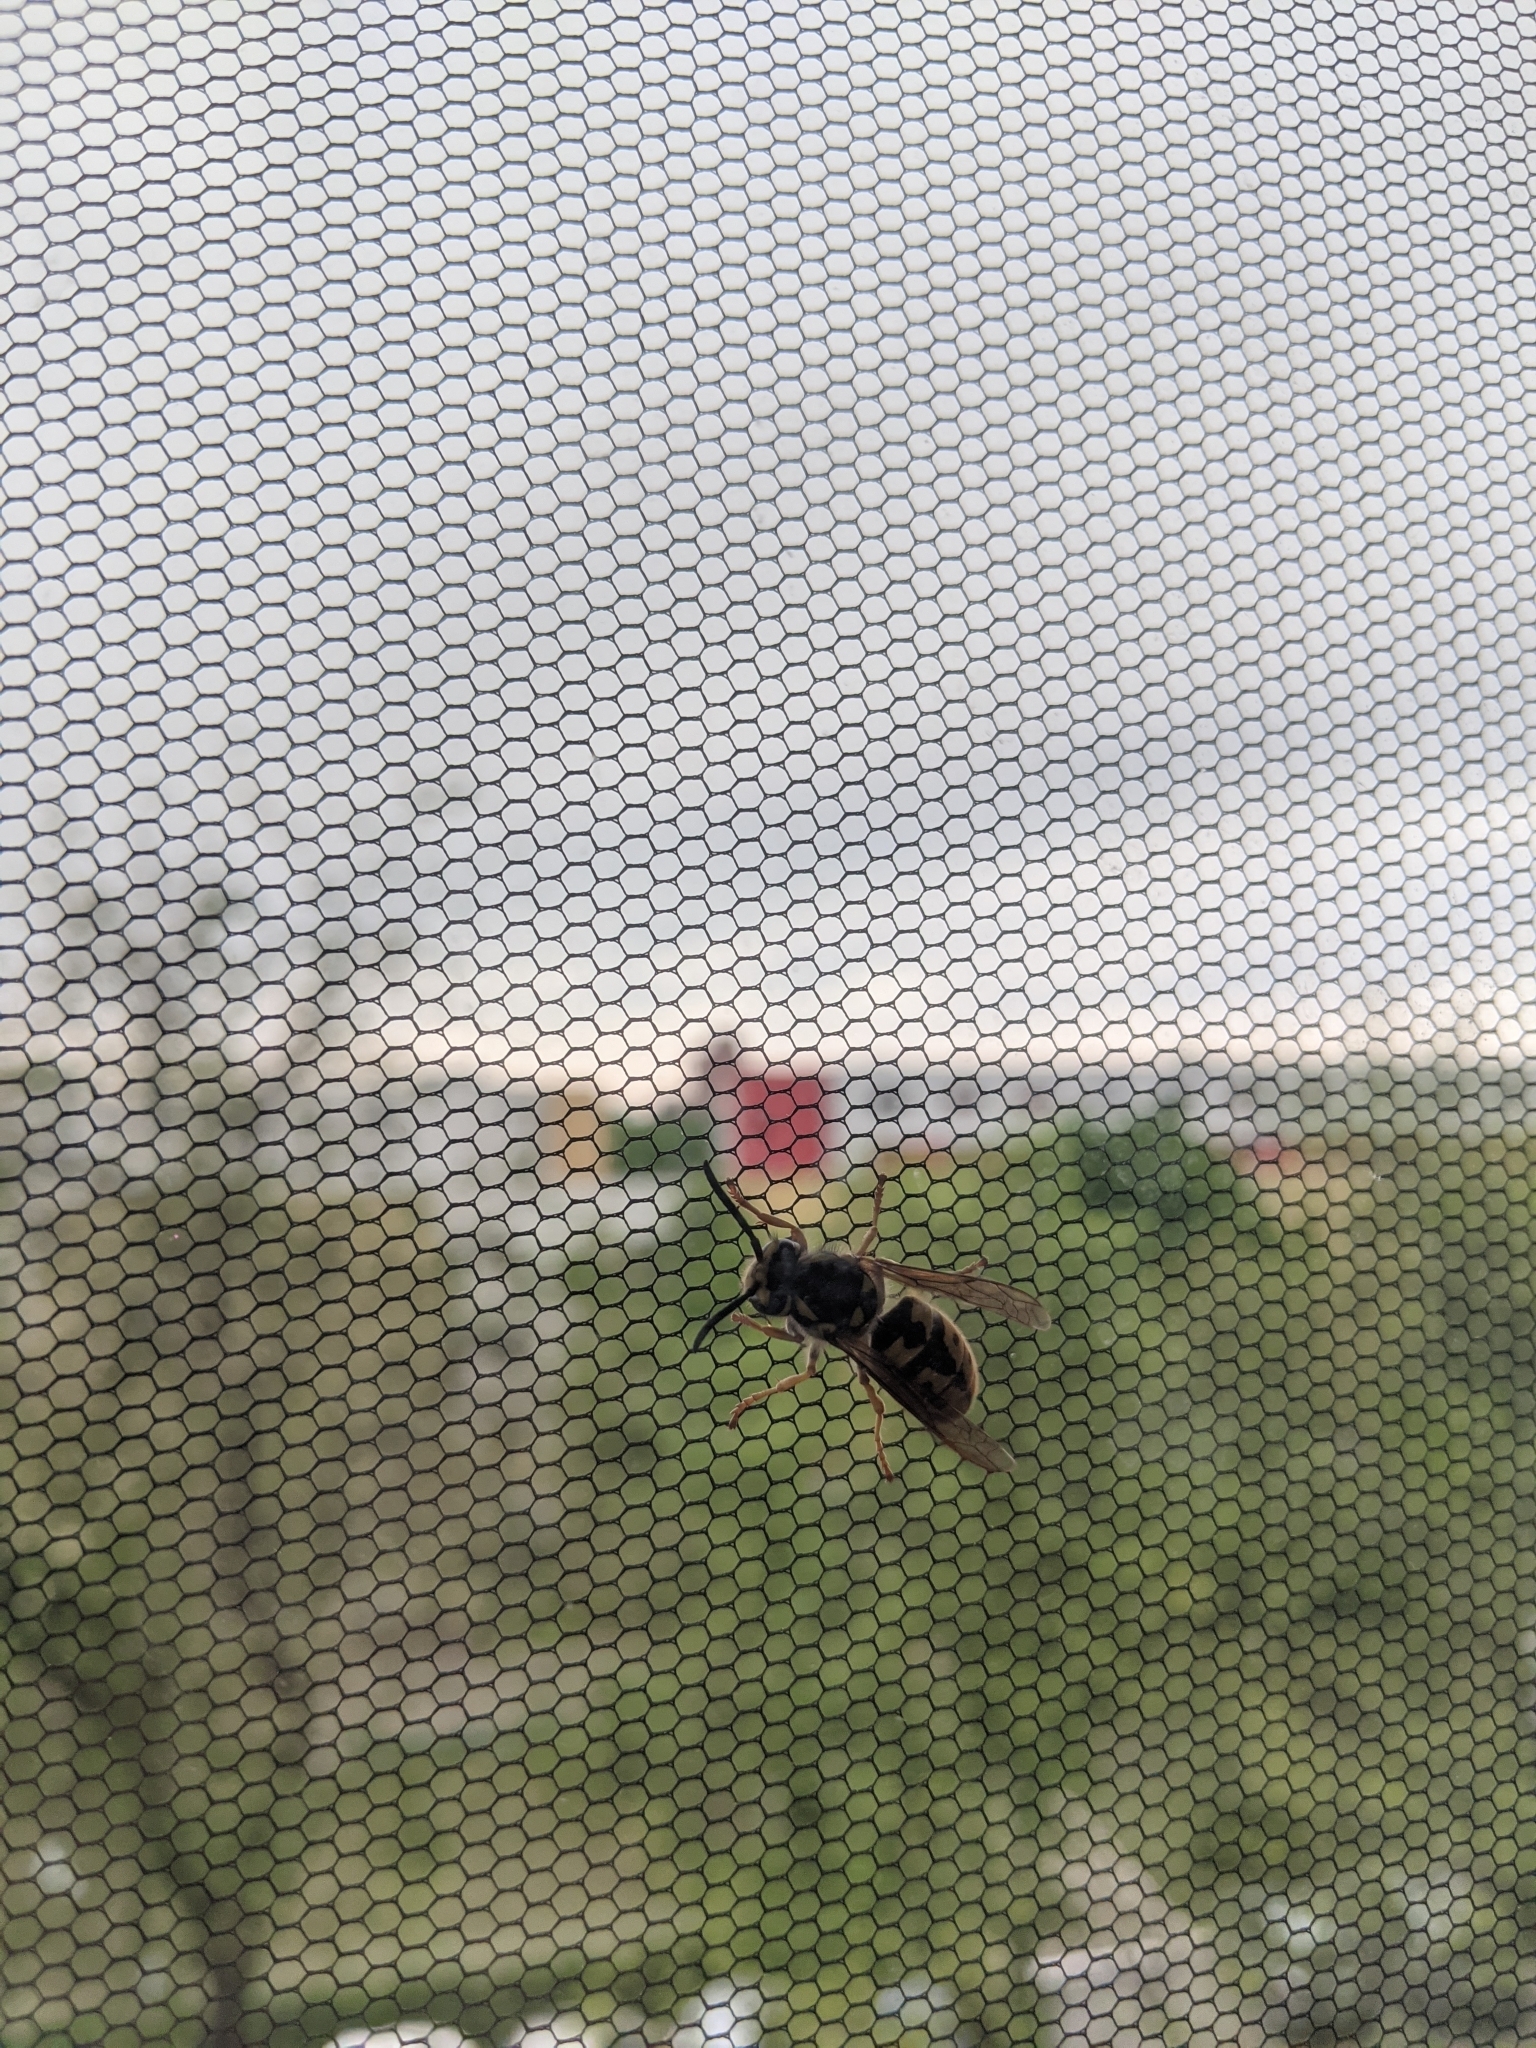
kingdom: Animalia
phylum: Arthropoda
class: Insecta
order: Hymenoptera
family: Vespidae
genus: Vespula
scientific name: Vespula germanica
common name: German wasp
